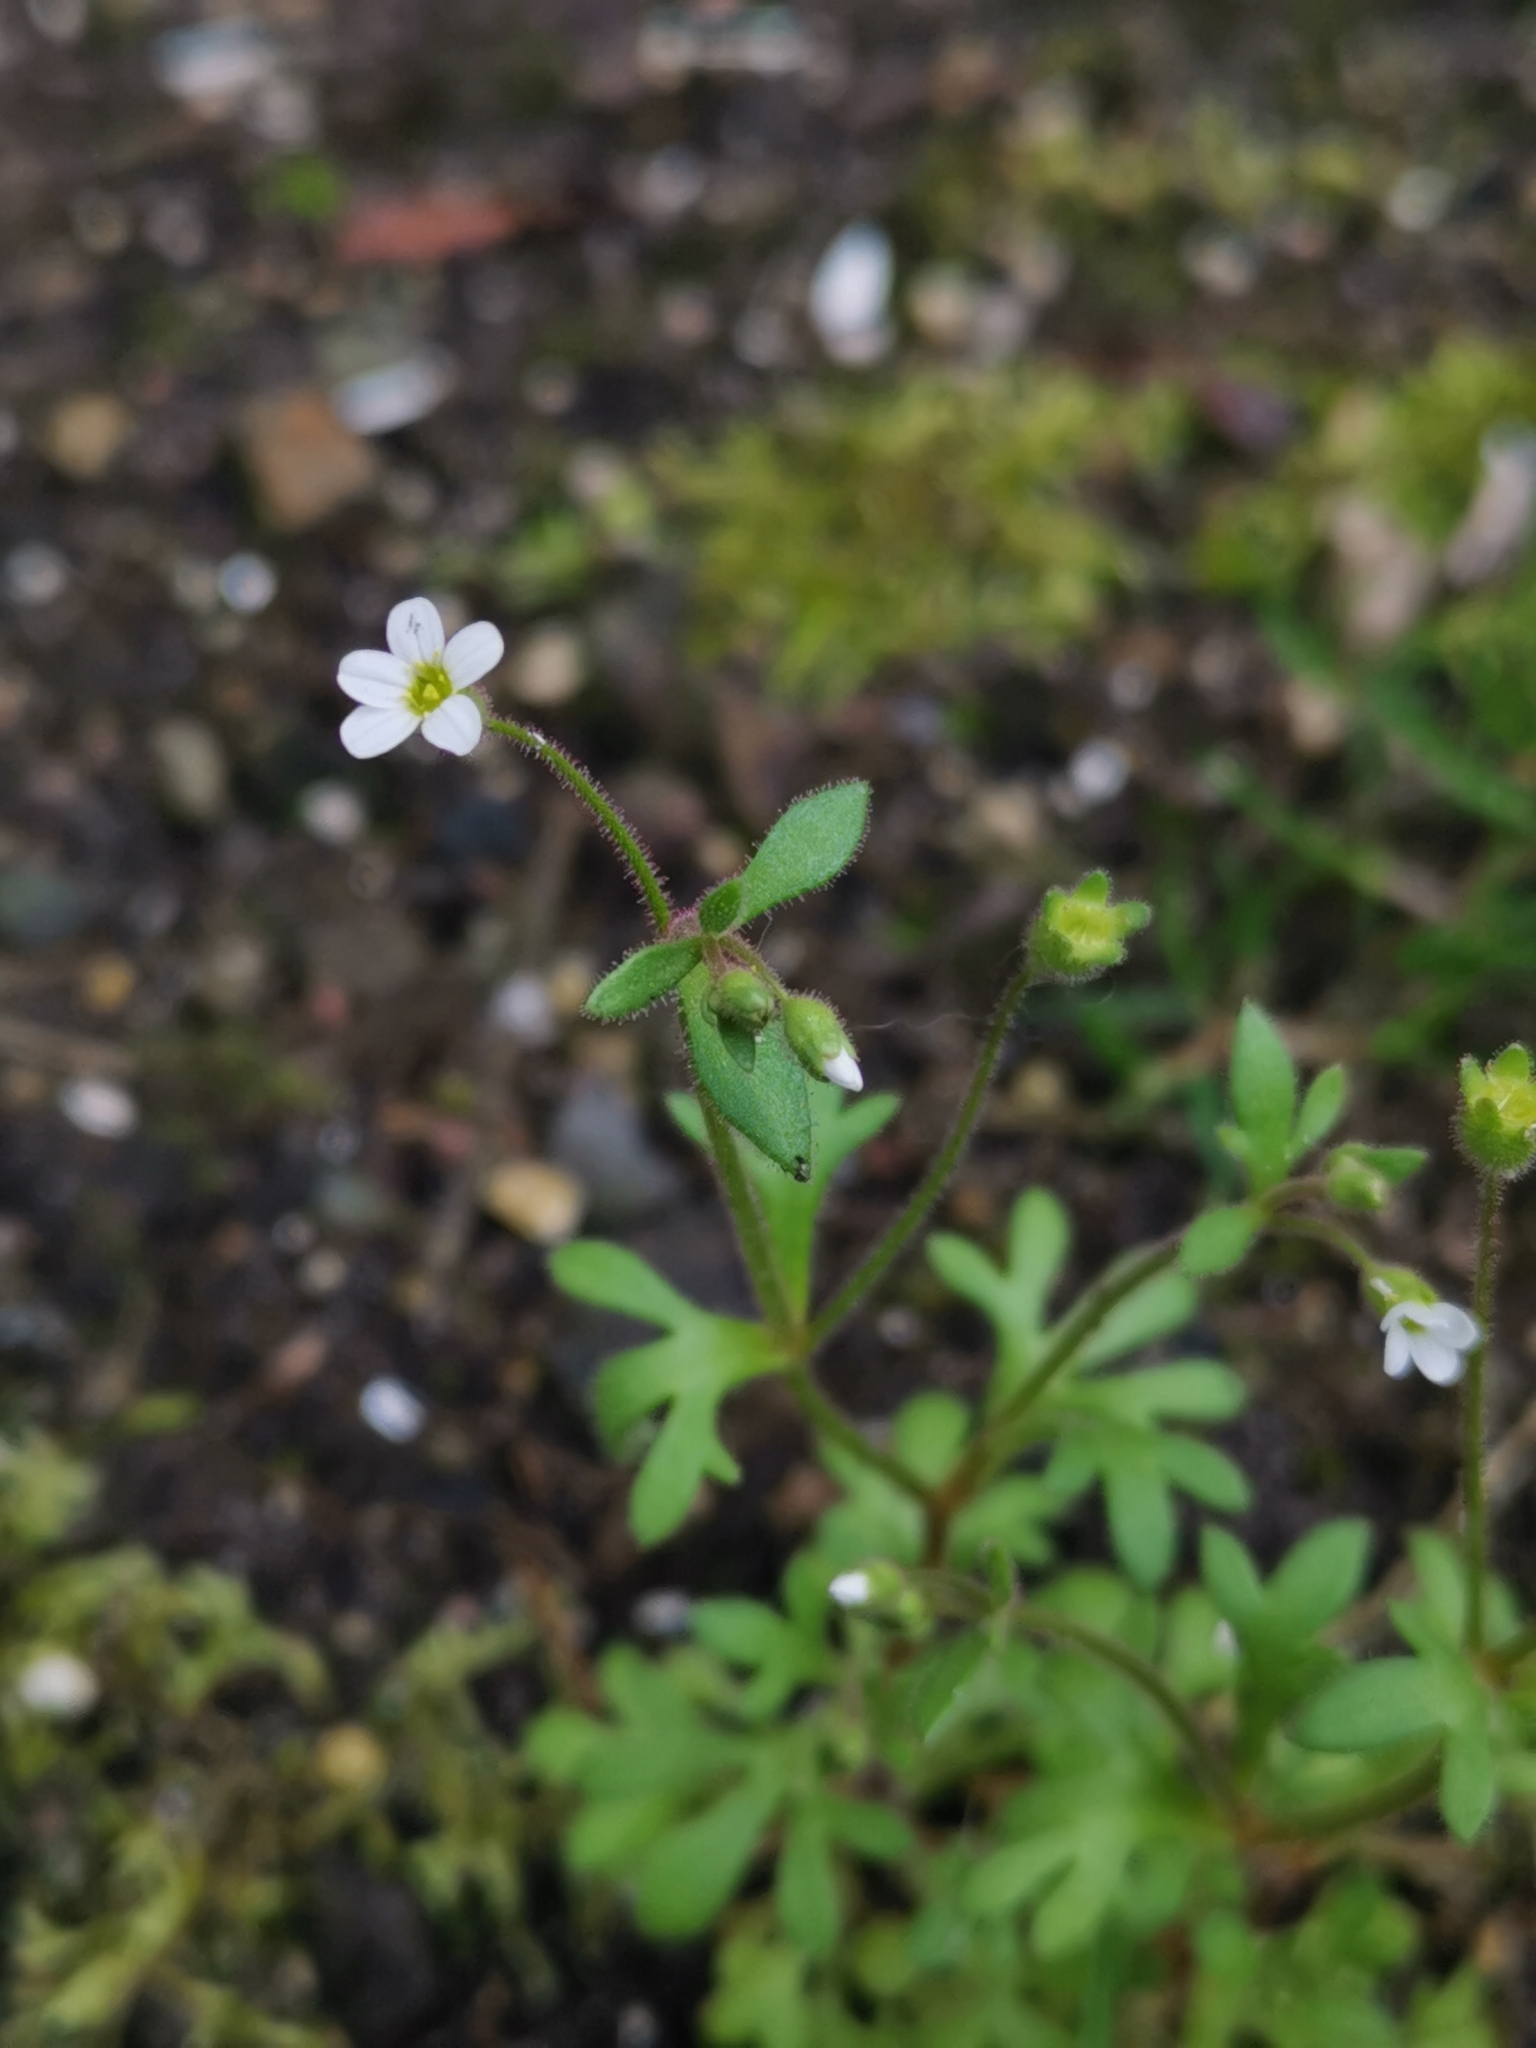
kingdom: Plantae
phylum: Tracheophyta
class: Magnoliopsida
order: Saxifragales
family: Saxifragaceae
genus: Saxifraga
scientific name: Saxifraga tridactylites
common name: Rue-leaved saxifrage
